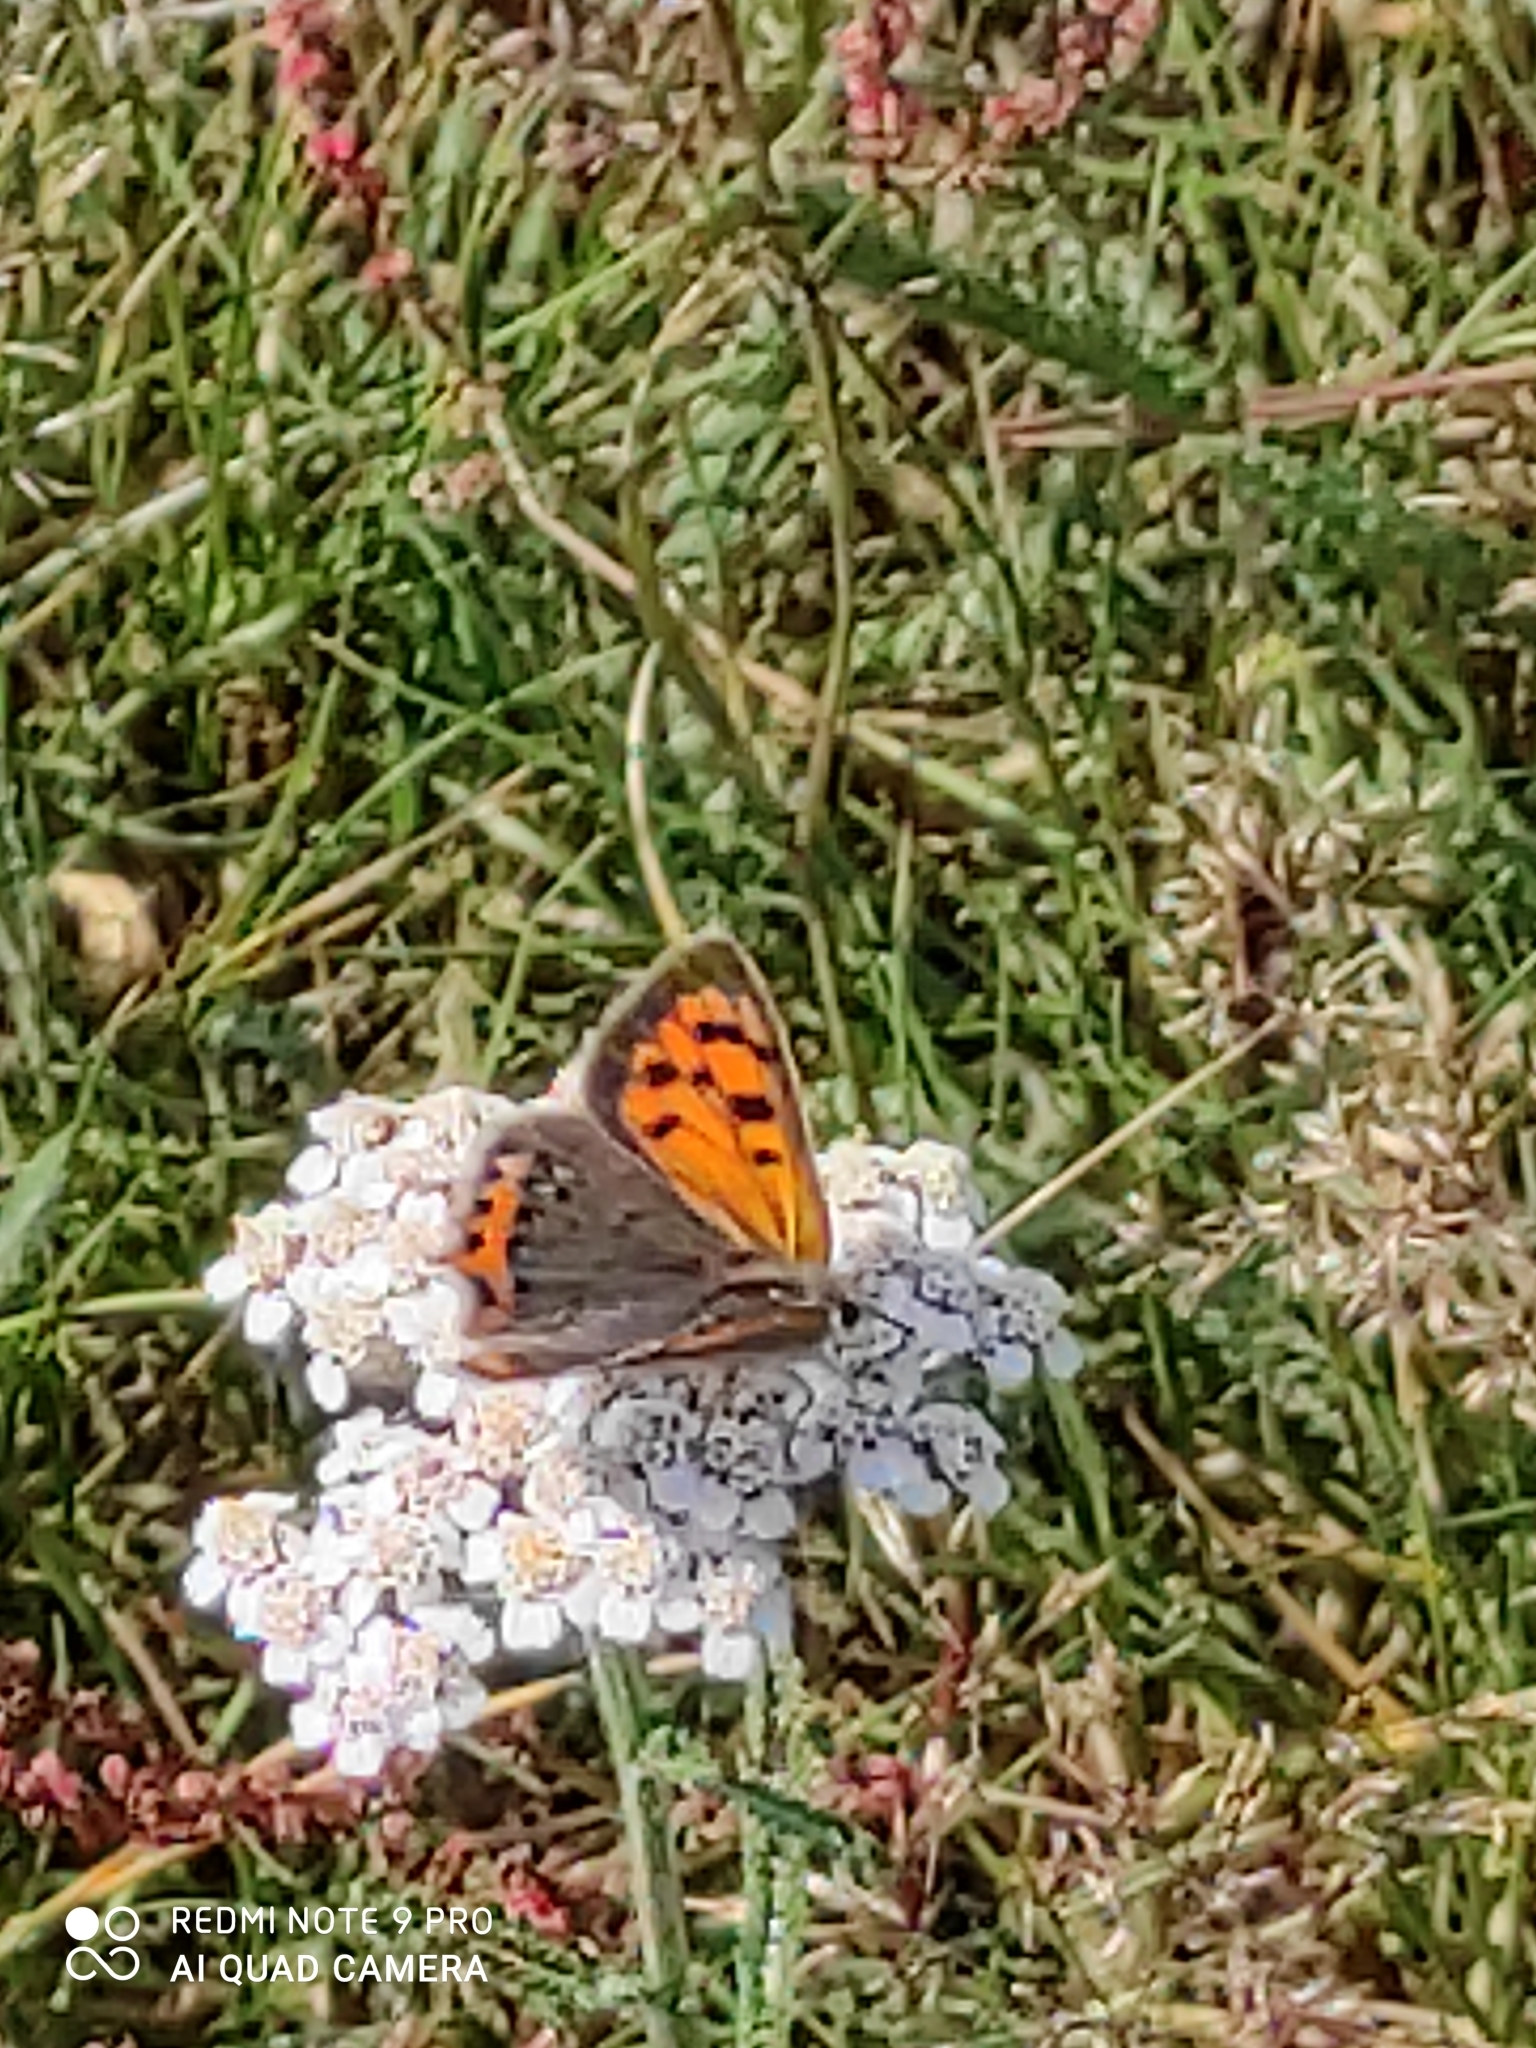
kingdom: Animalia
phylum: Arthropoda
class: Insecta
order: Lepidoptera
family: Lycaenidae
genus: Lycaena
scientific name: Lycaena phlaeas
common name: Small copper
